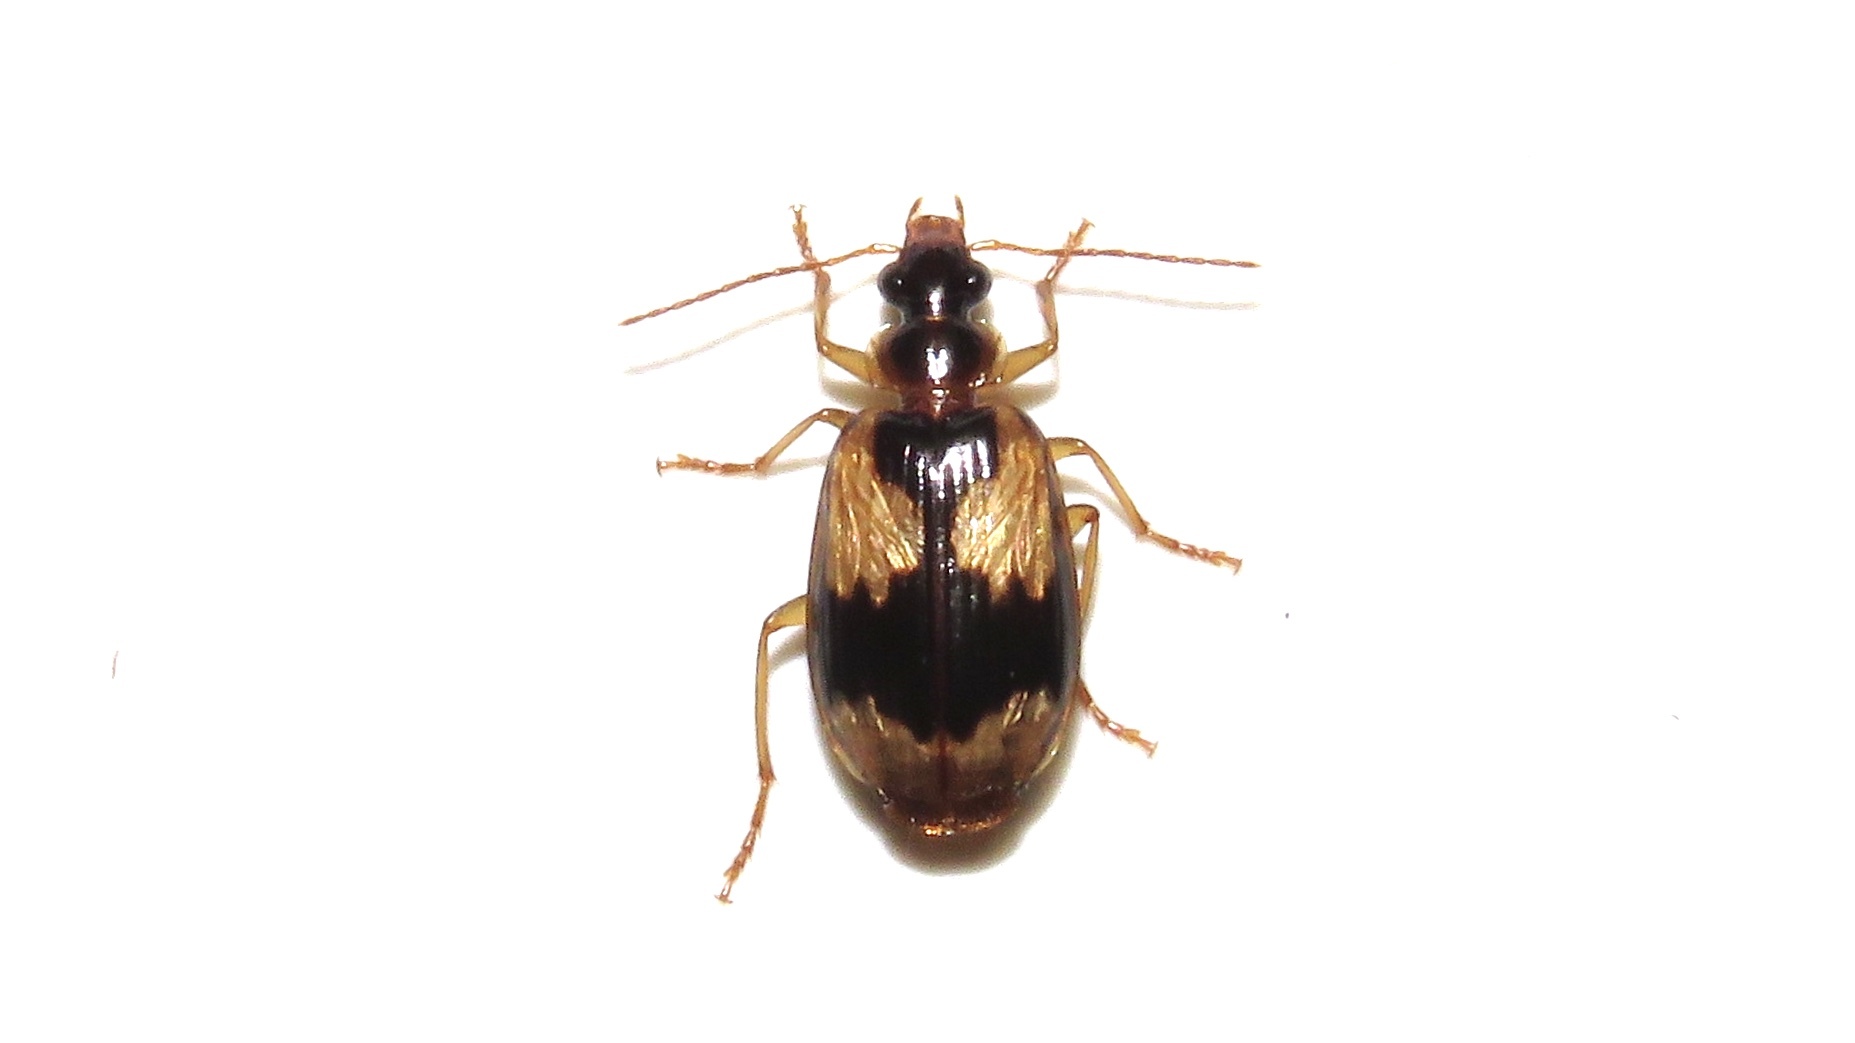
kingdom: Animalia
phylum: Arthropoda
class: Insecta
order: Coleoptera
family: Carabidae
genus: Lebia
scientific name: Lebia fuscata
